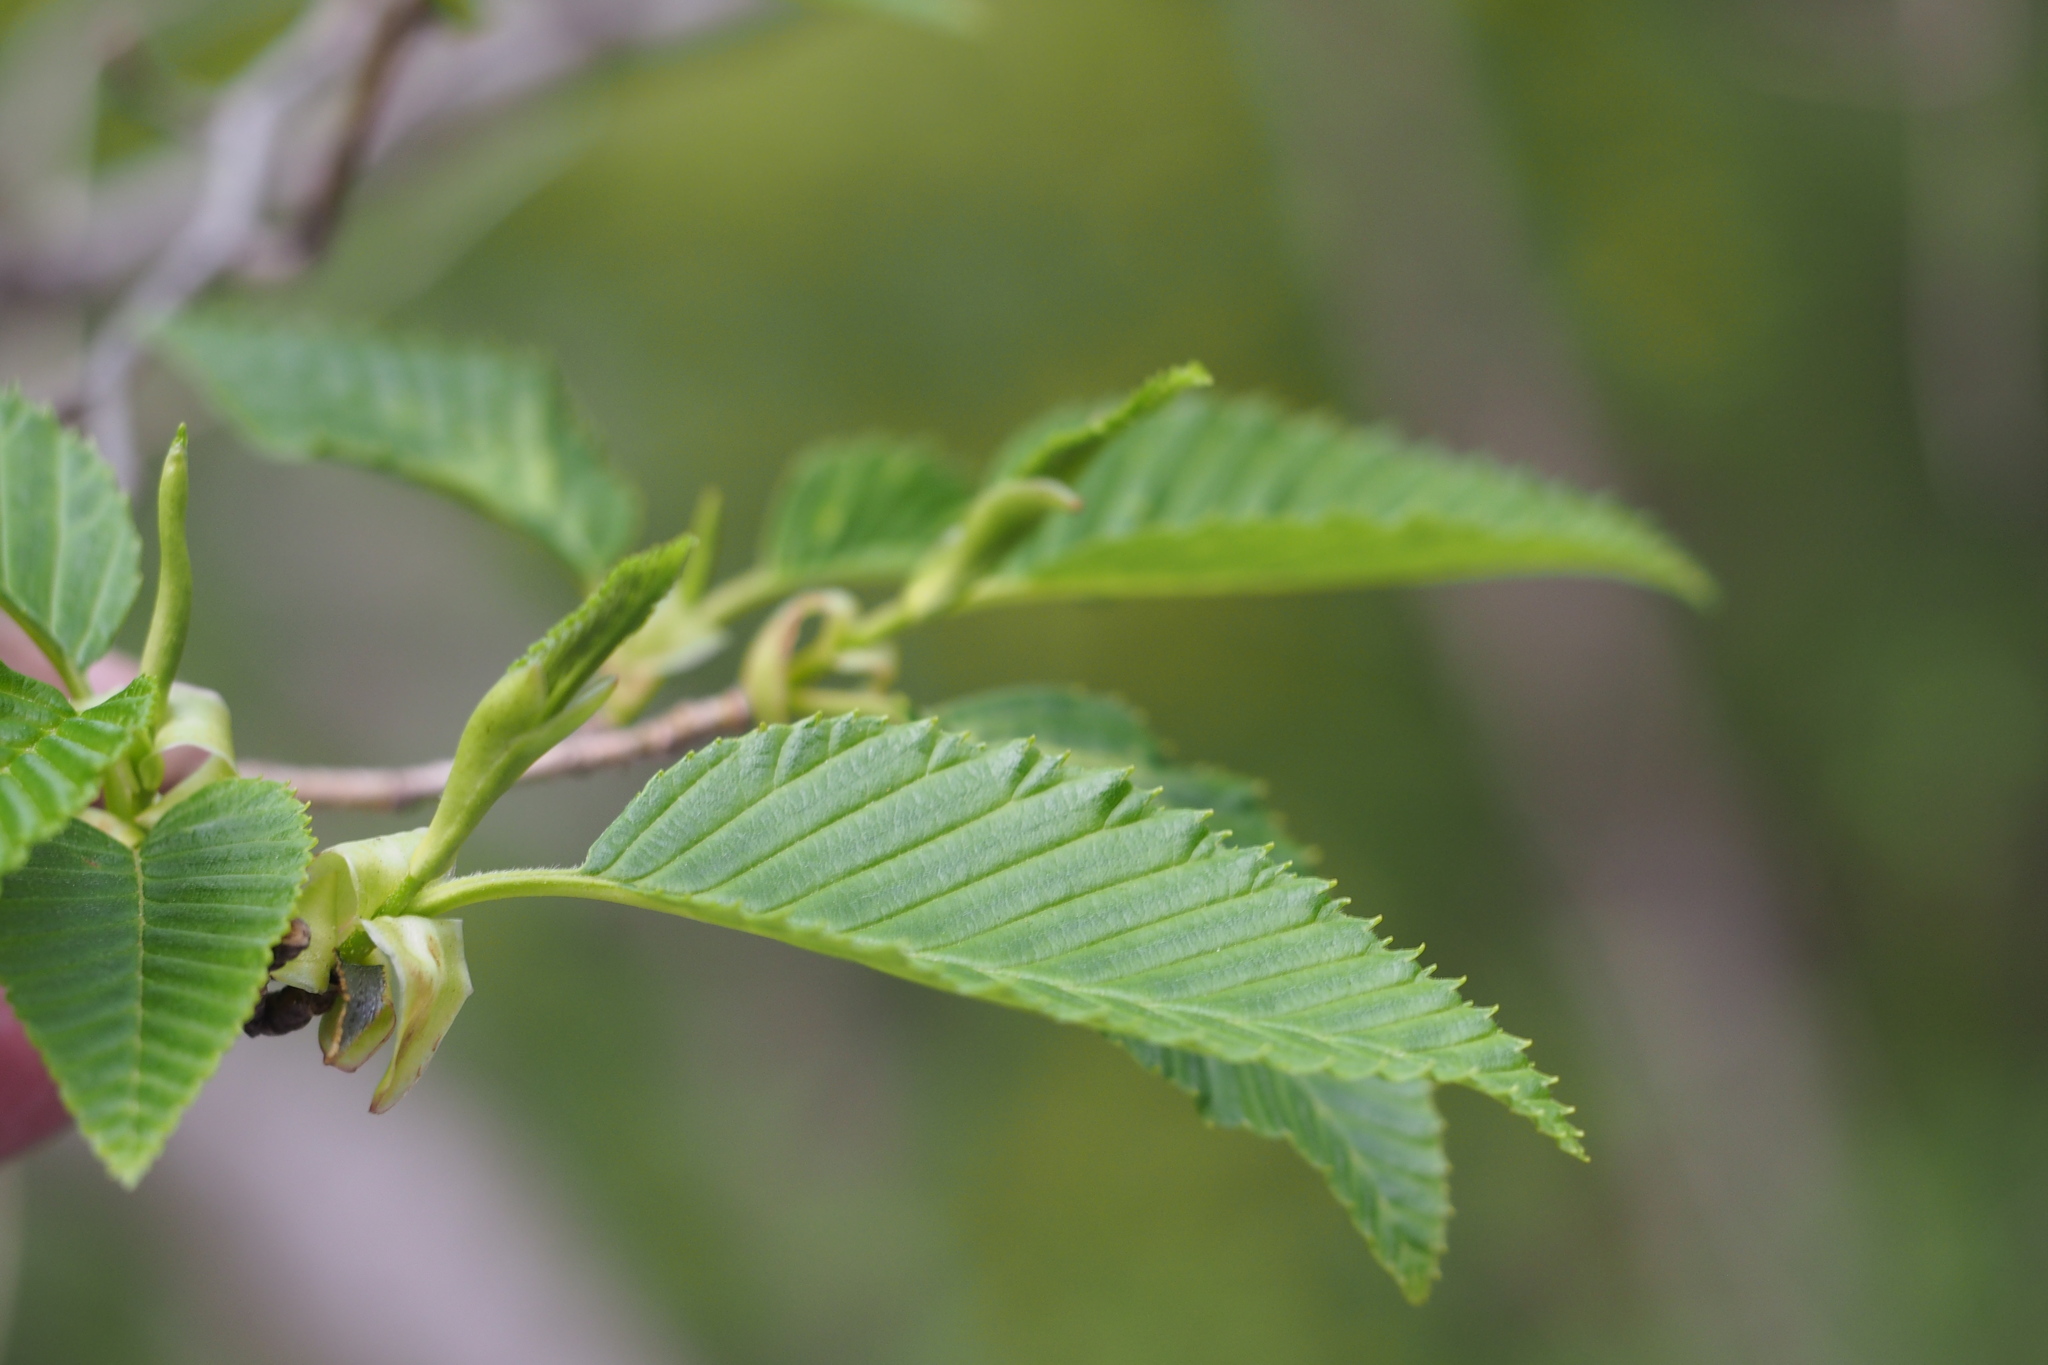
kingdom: Plantae
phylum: Tracheophyta
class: Magnoliopsida
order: Fagales
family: Betulaceae
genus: Alnus
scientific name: Alnus sieboldiana
